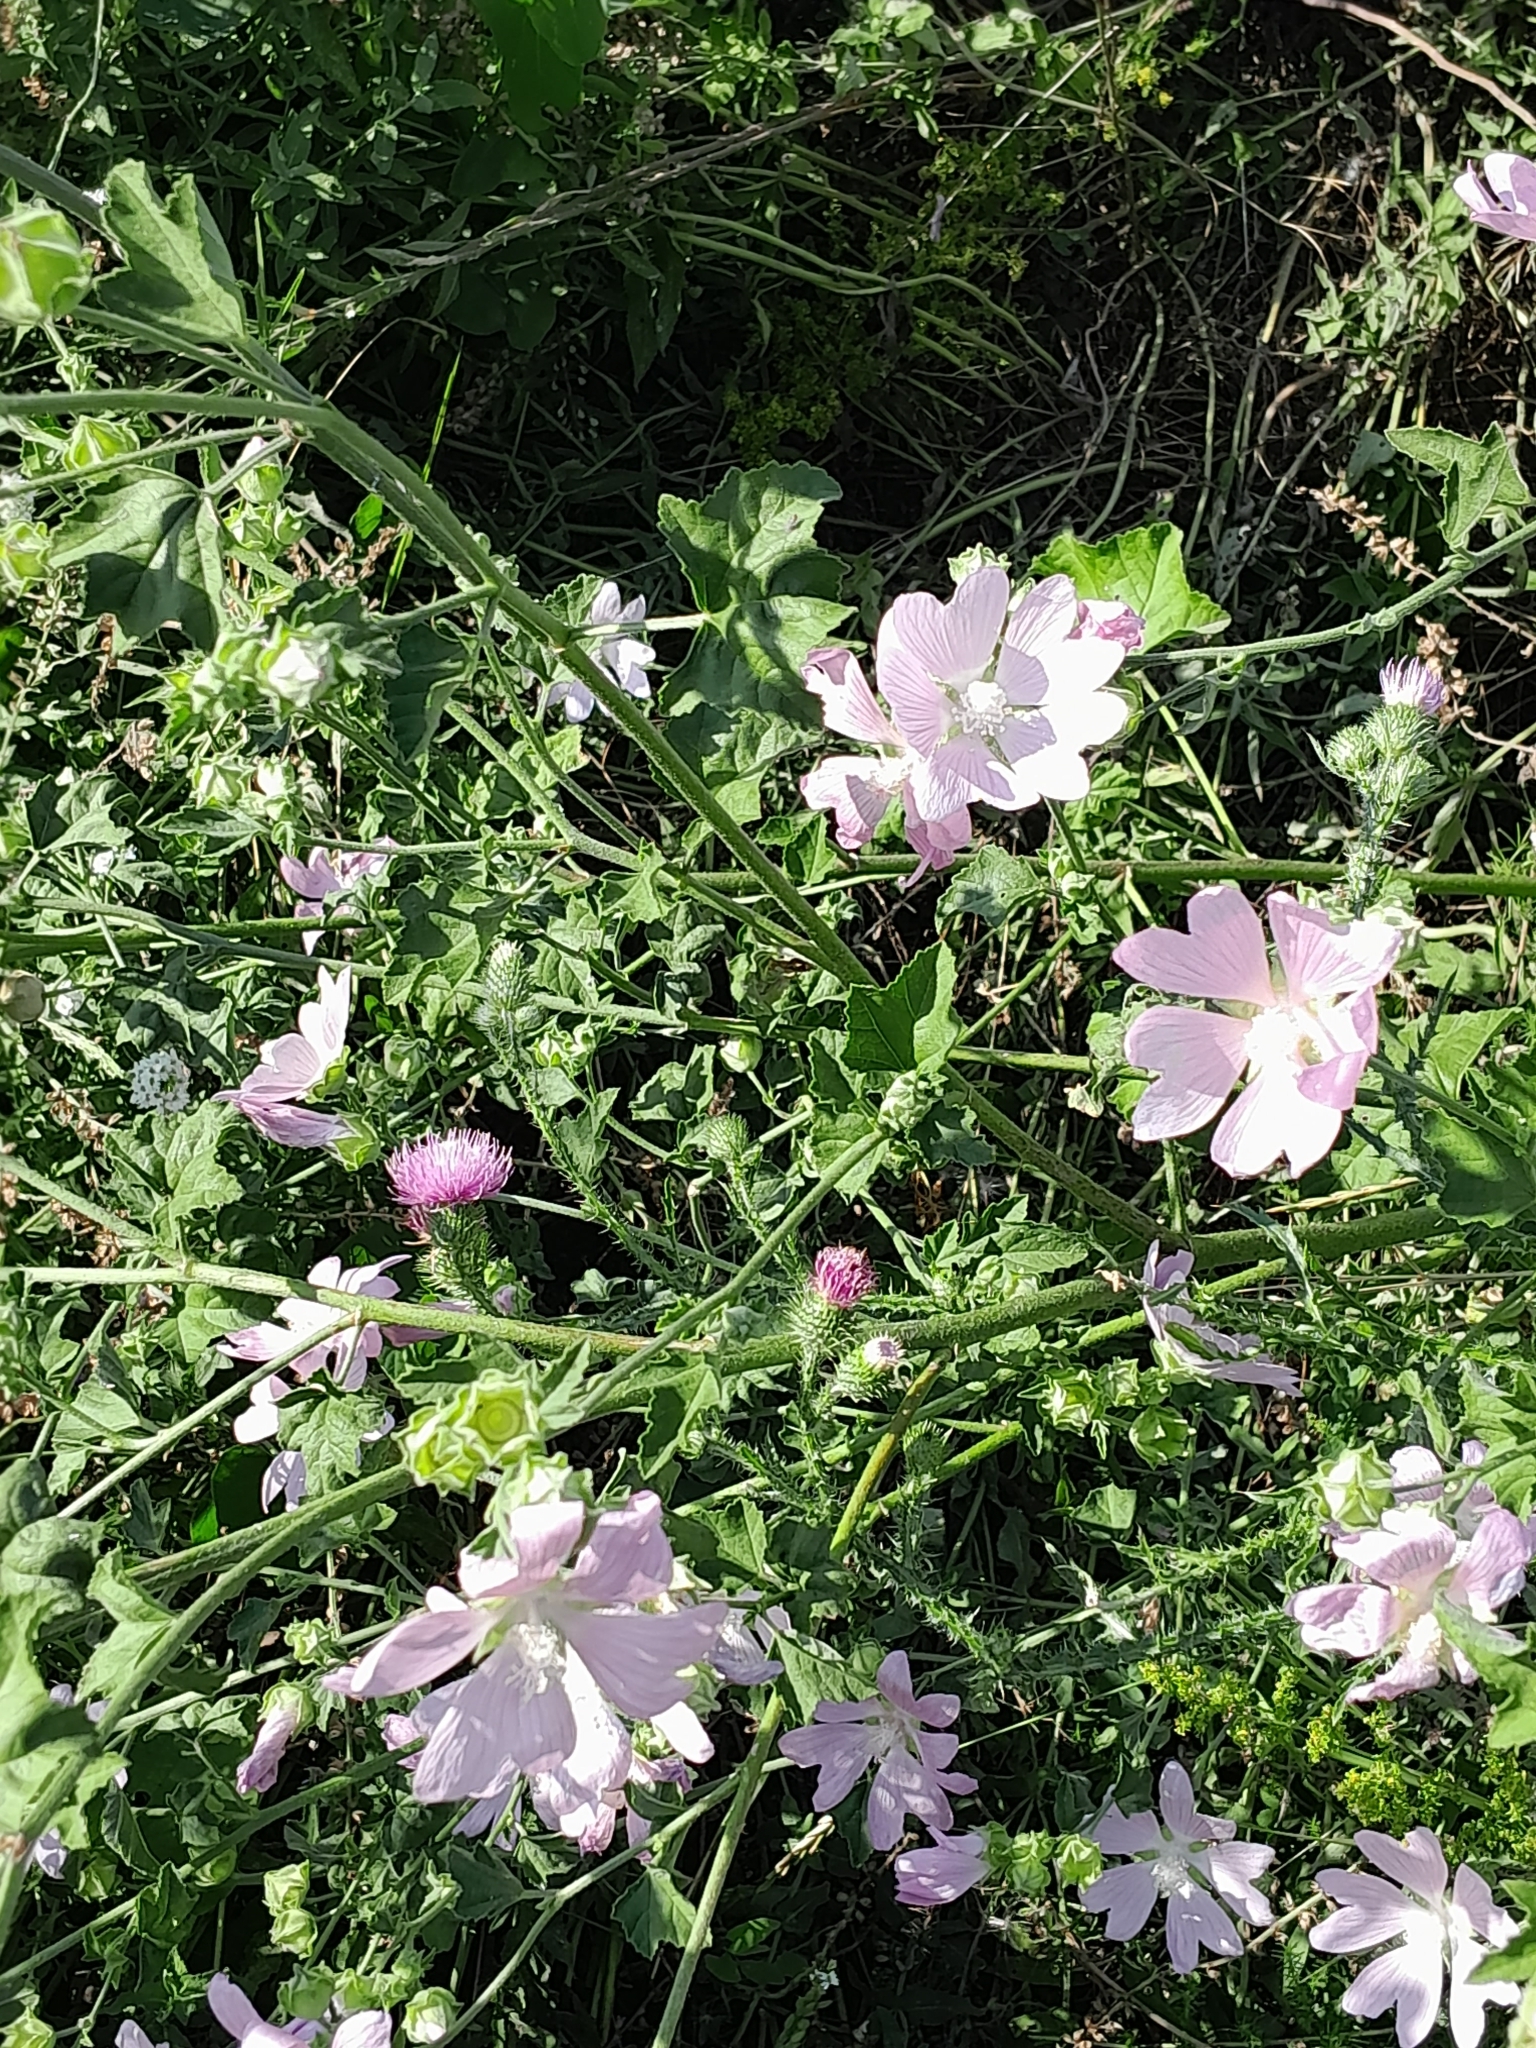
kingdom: Plantae
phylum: Tracheophyta
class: Magnoliopsida
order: Malvales
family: Malvaceae
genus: Malva
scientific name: Malva thuringiaca
